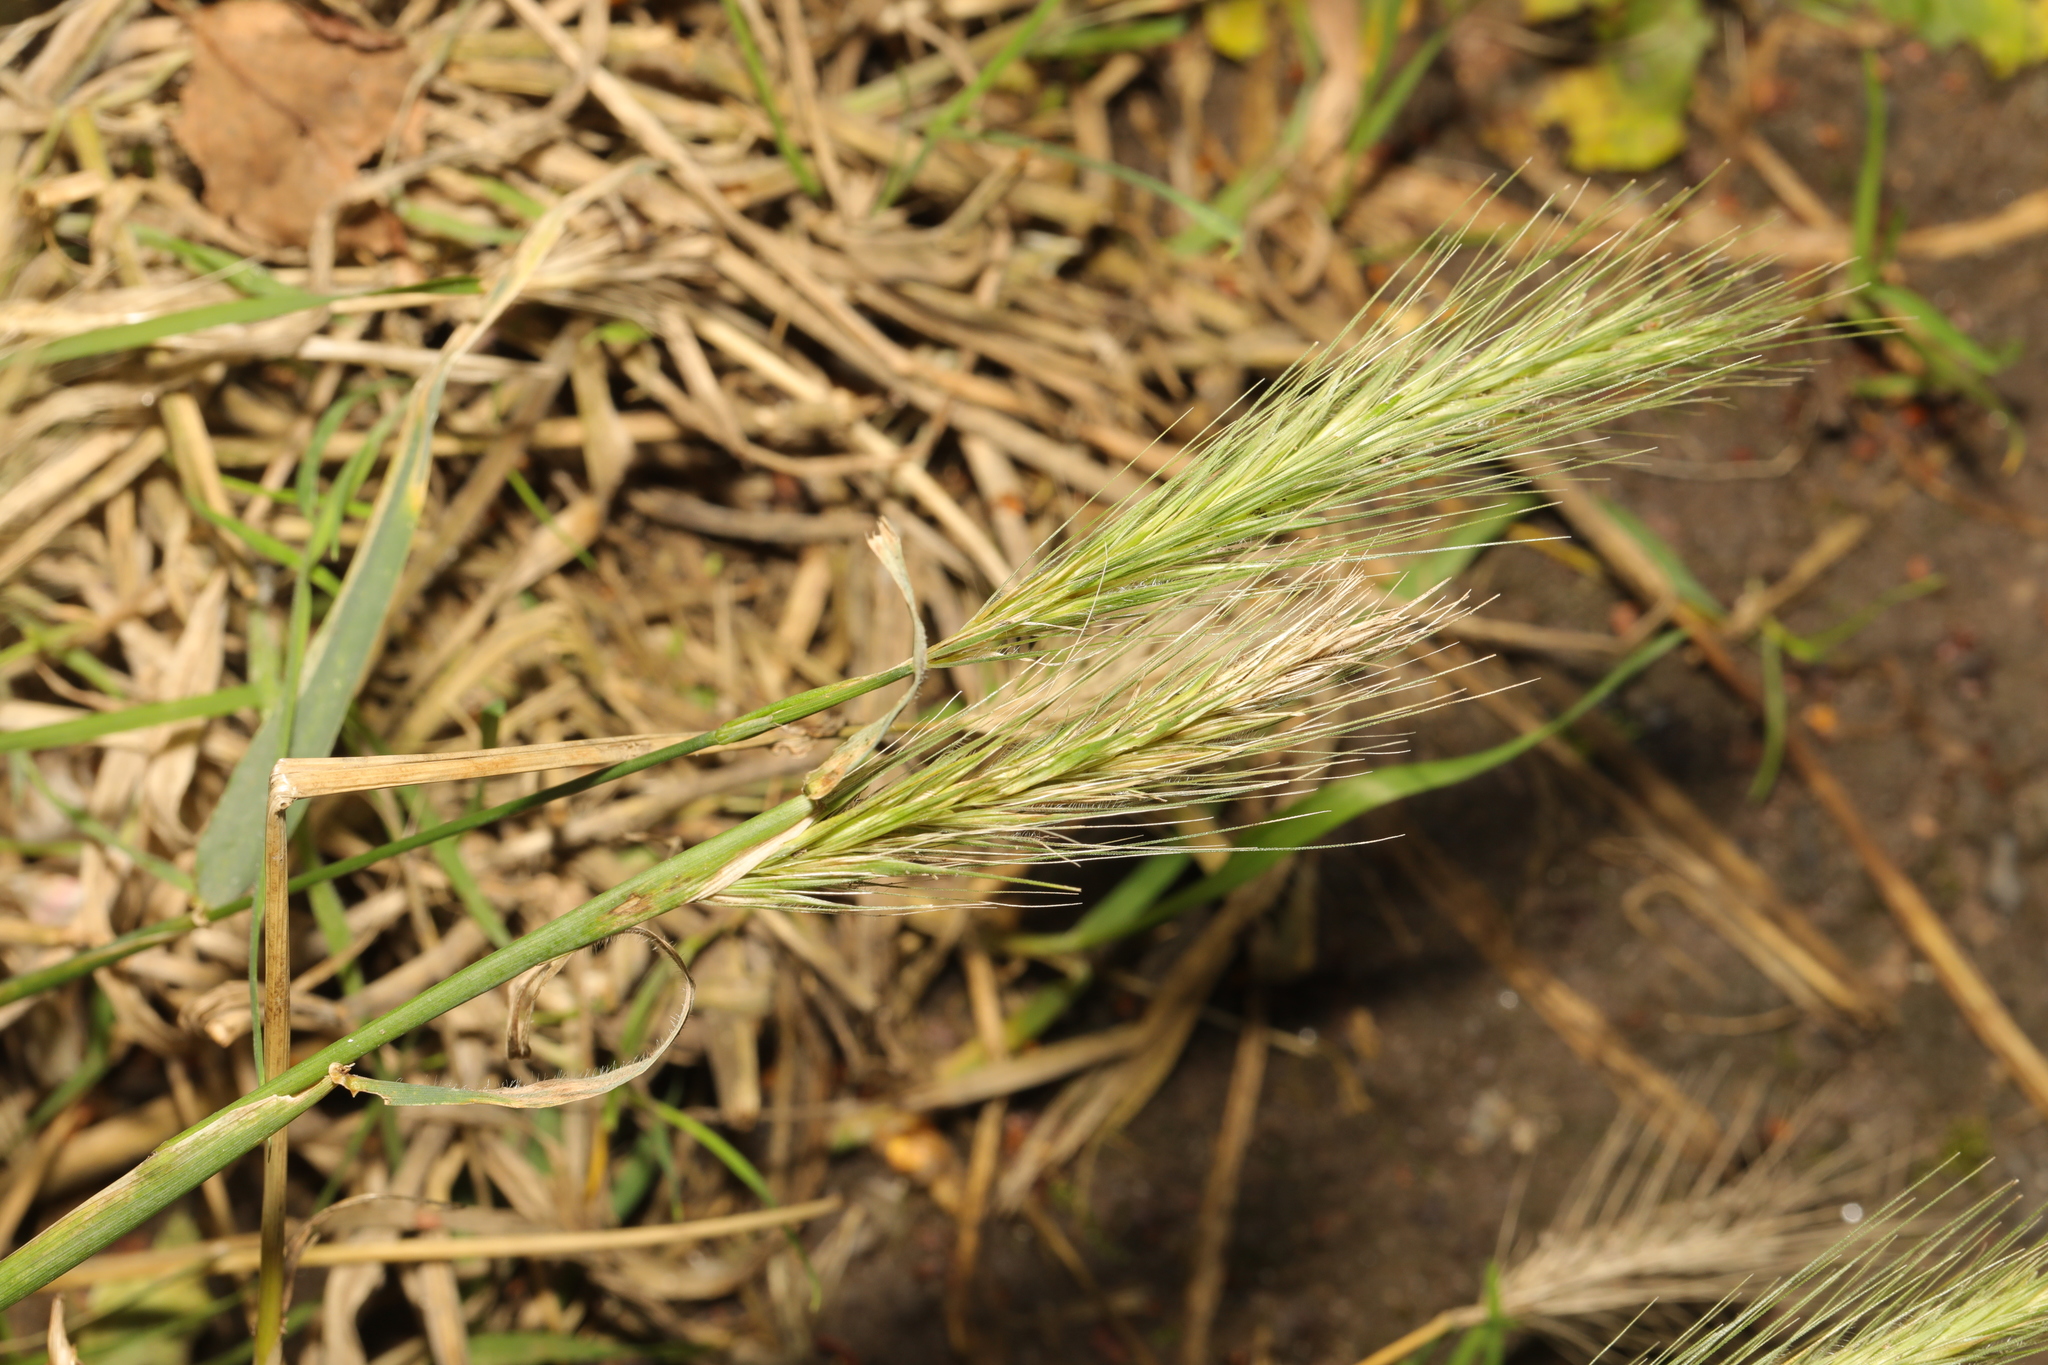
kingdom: Plantae
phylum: Tracheophyta
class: Liliopsida
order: Poales
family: Poaceae
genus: Hordeum
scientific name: Hordeum murinum
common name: Wall barley
